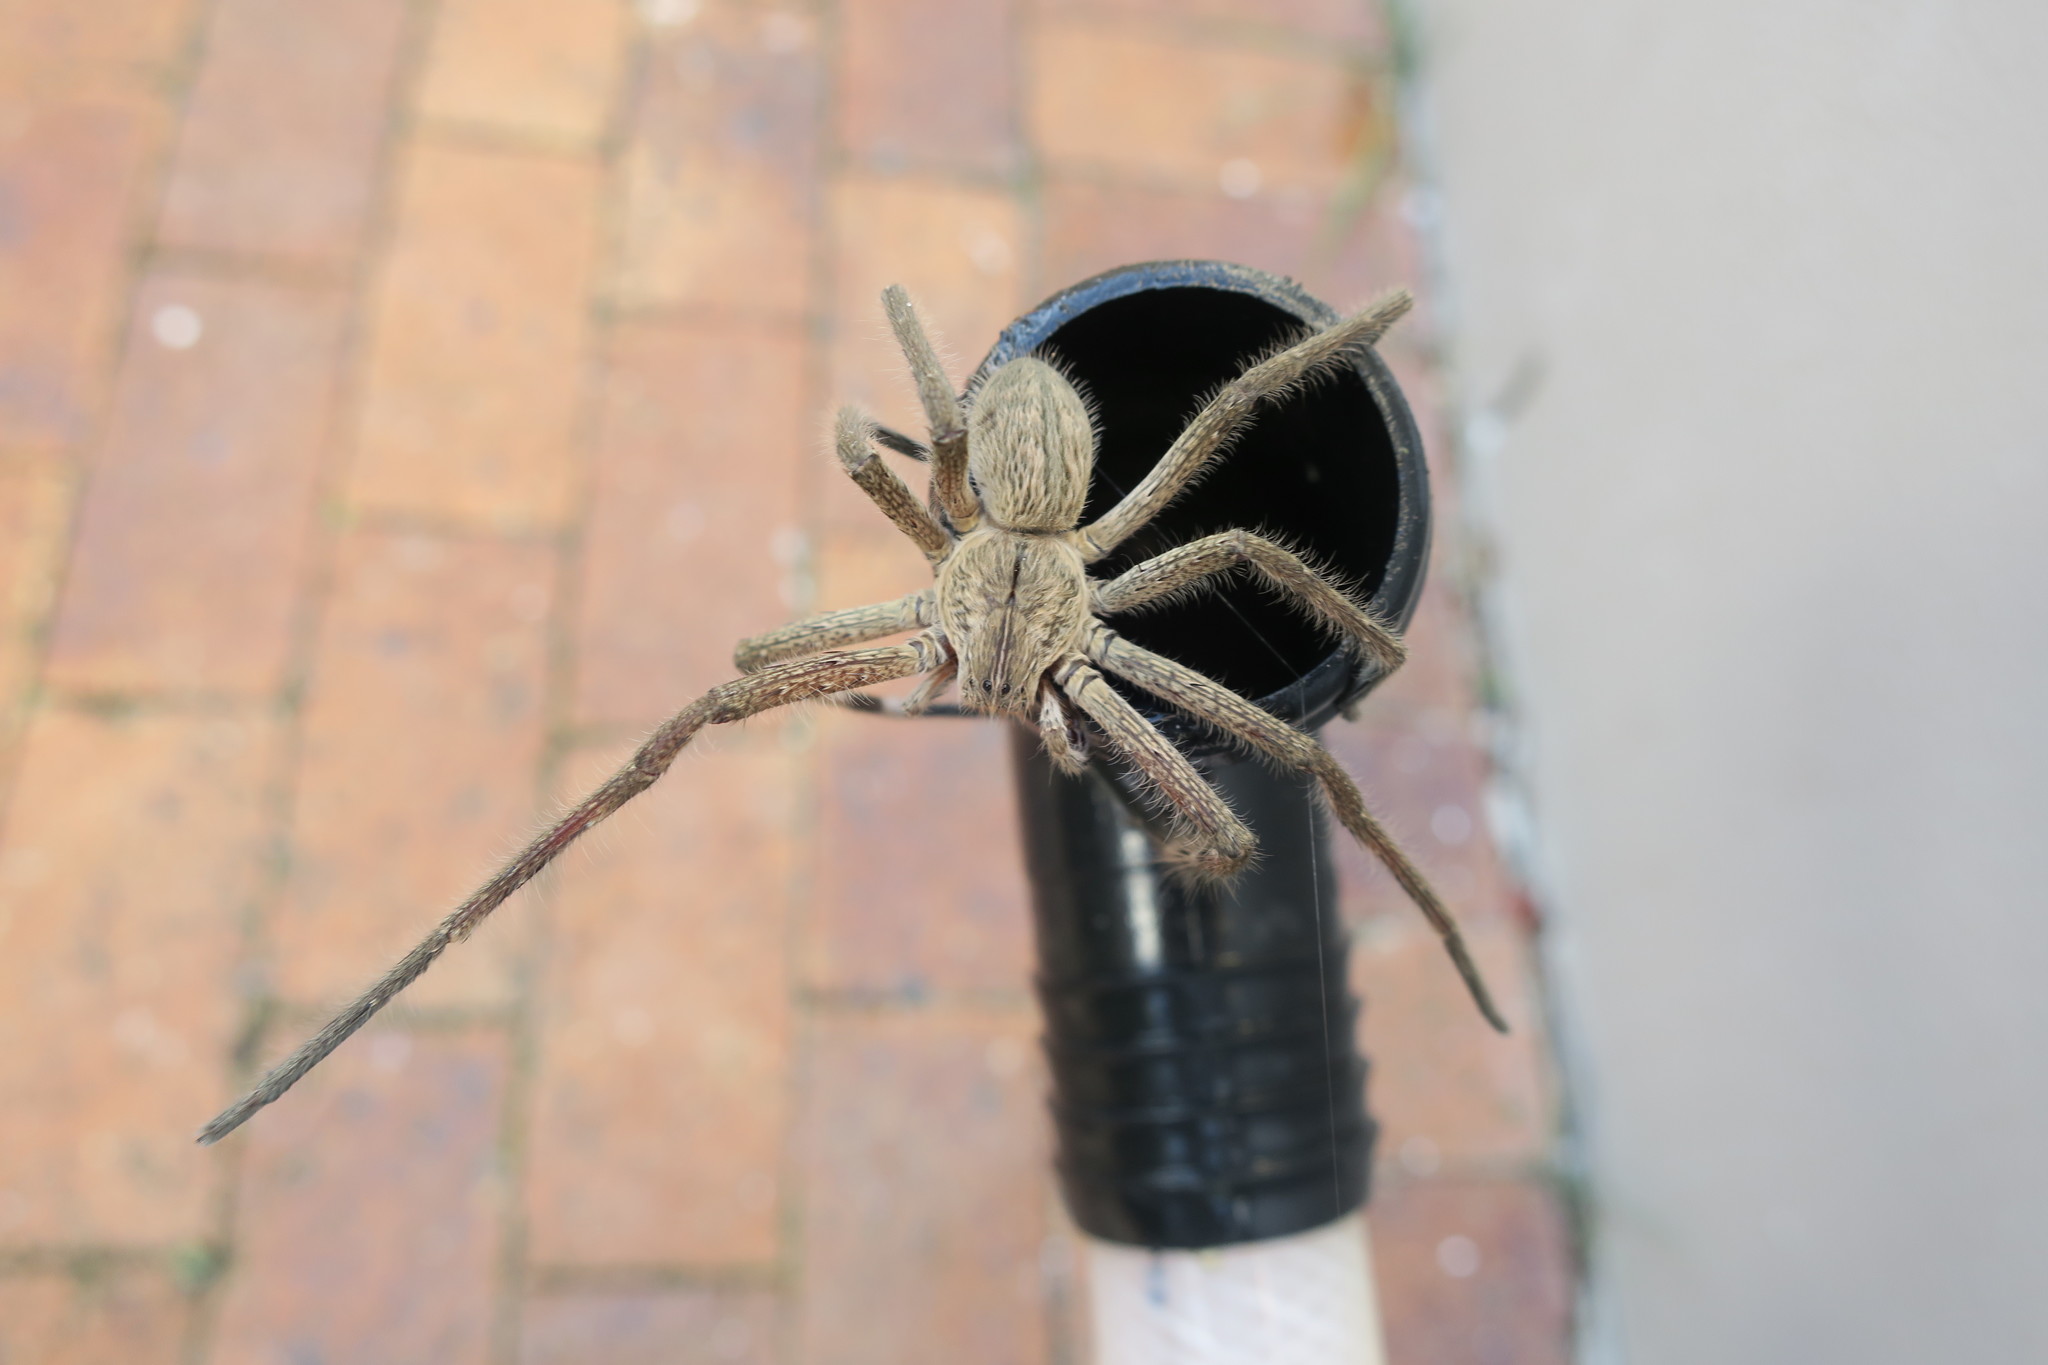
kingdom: Animalia
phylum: Arthropoda
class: Arachnida
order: Araneae
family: Sparassidae
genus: Palystes
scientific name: Palystes superciliosus
